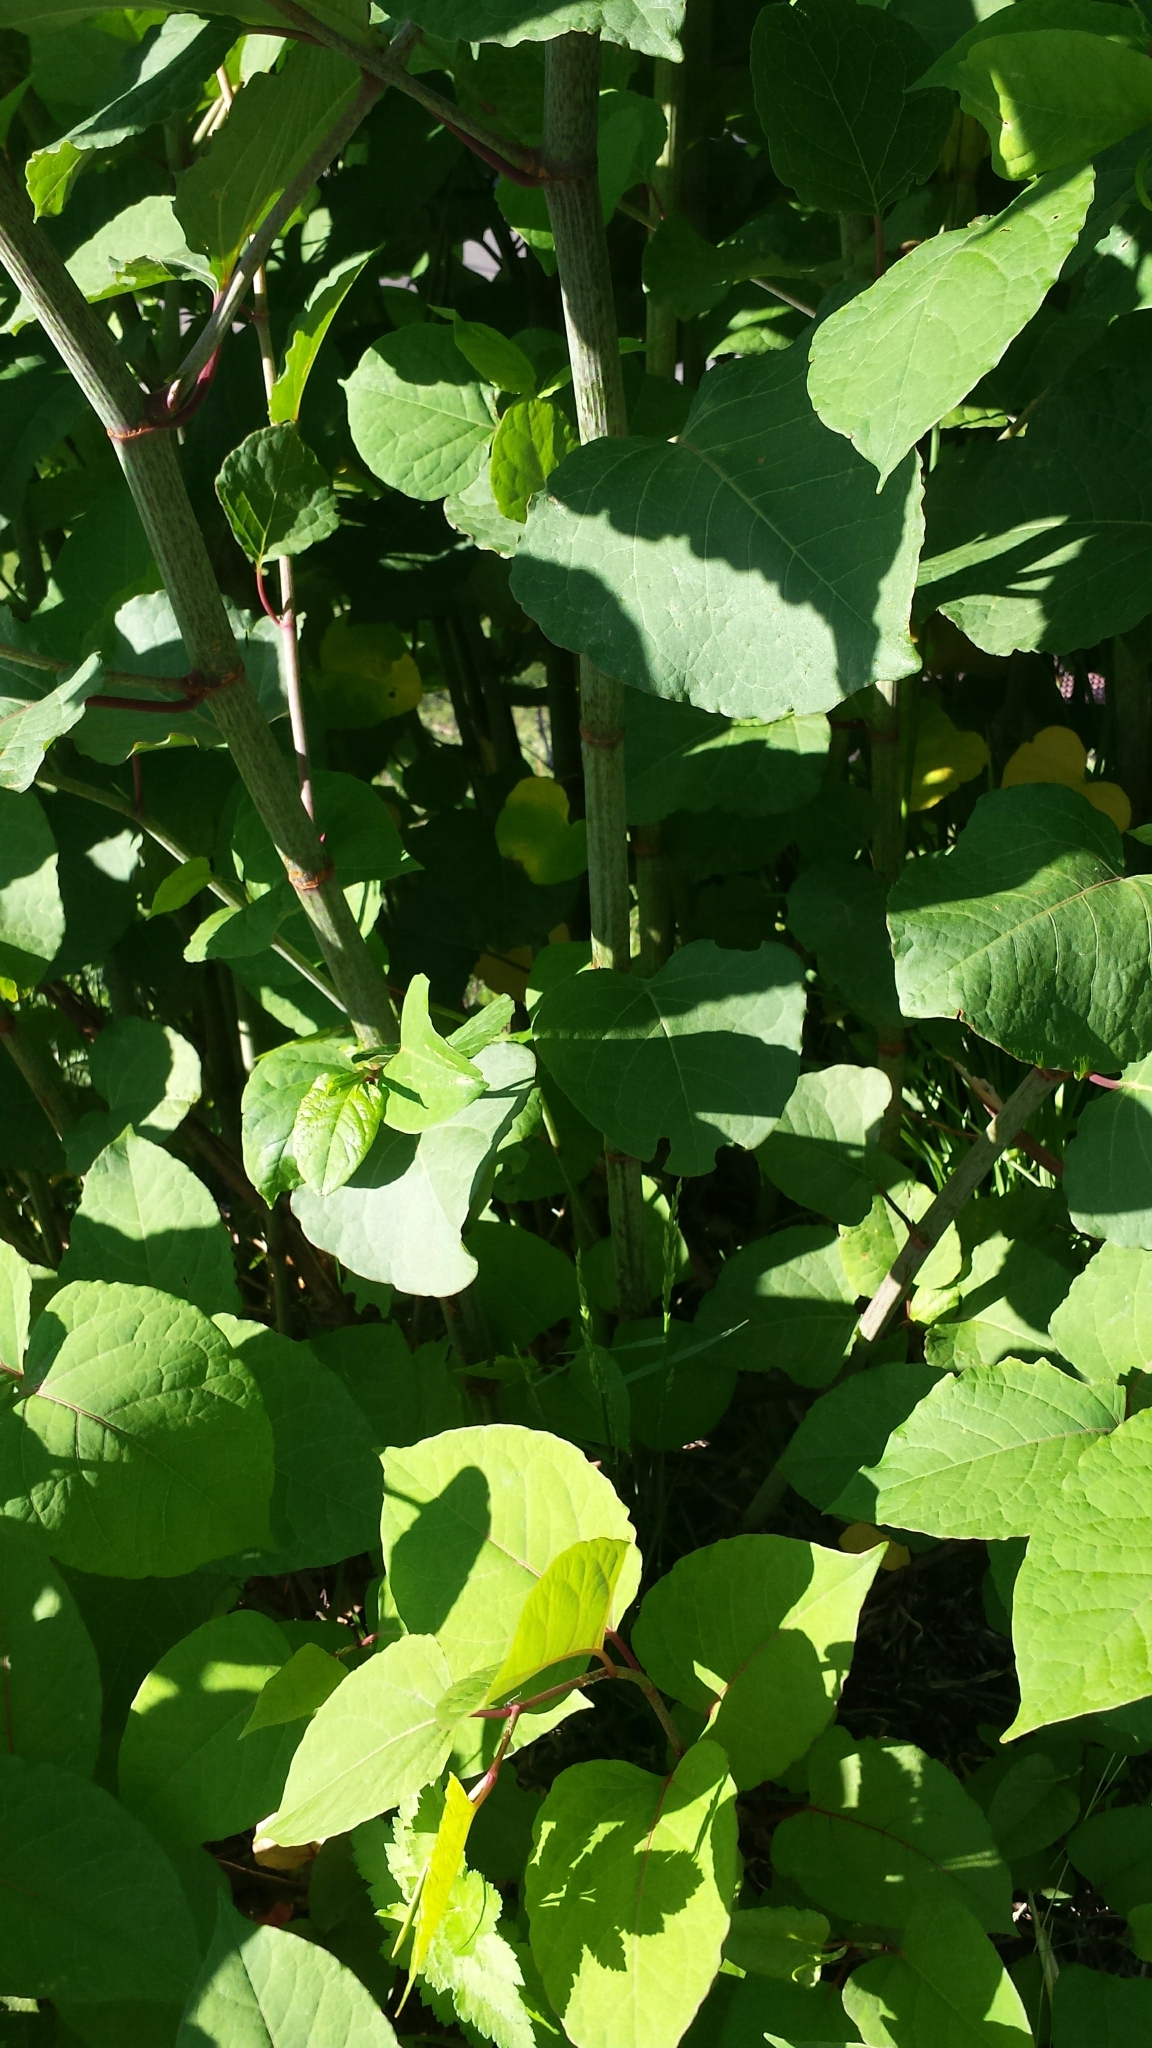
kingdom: Plantae
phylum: Tracheophyta
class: Magnoliopsida
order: Caryophyllales
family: Polygonaceae
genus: Reynoutria
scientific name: Reynoutria japonica
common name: Japanese knotweed
